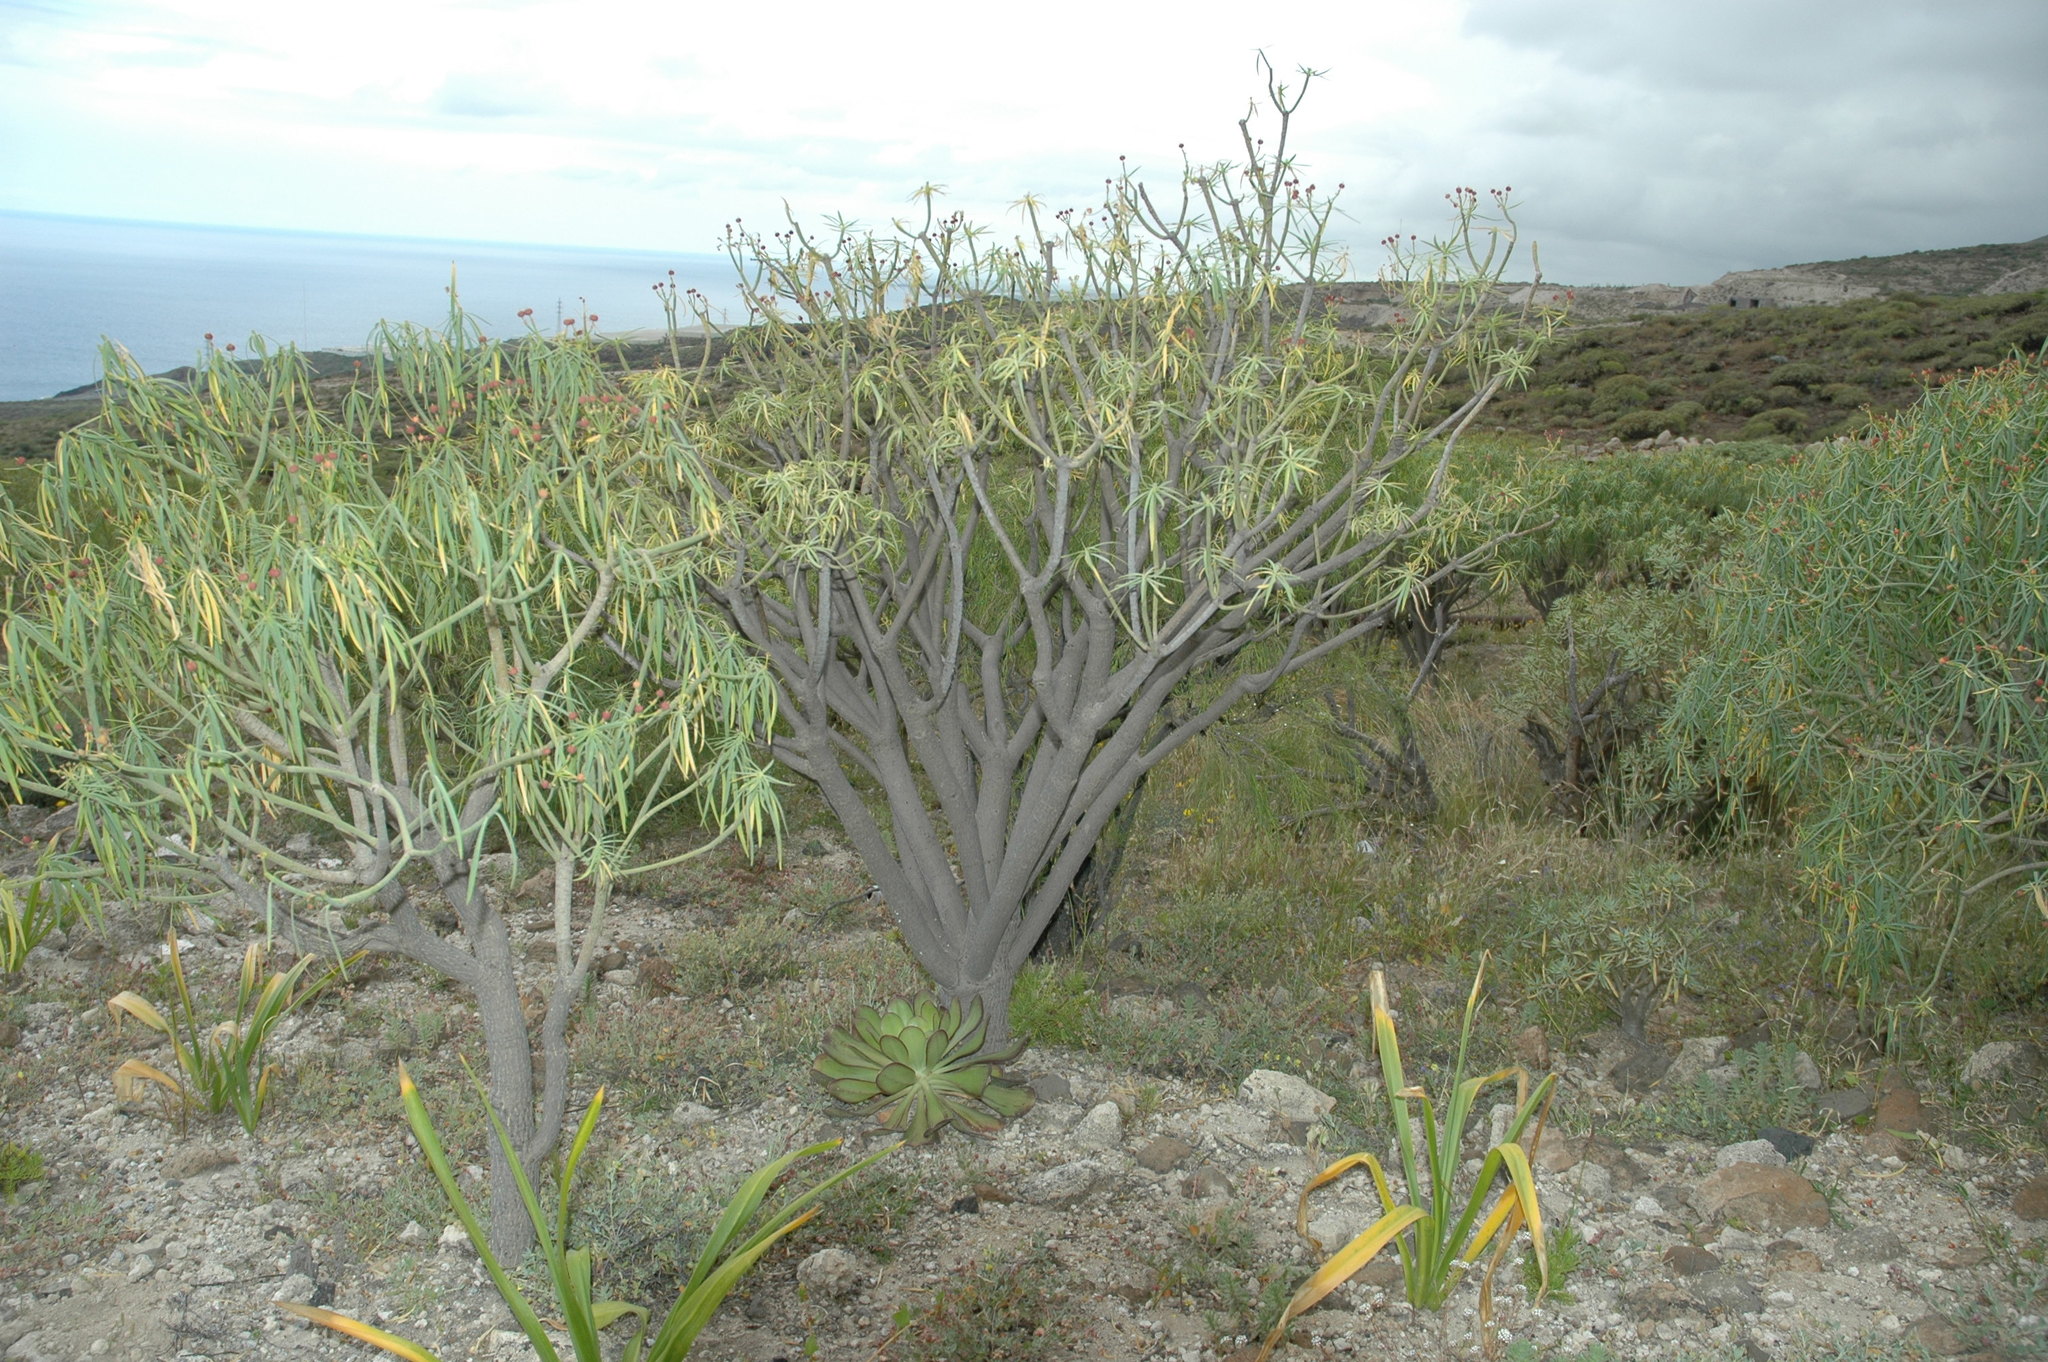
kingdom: Plantae
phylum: Tracheophyta
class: Magnoliopsida
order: Malpighiales
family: Euphorbiaceae
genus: Euphorbia
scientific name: Euphorbia lamarckii
